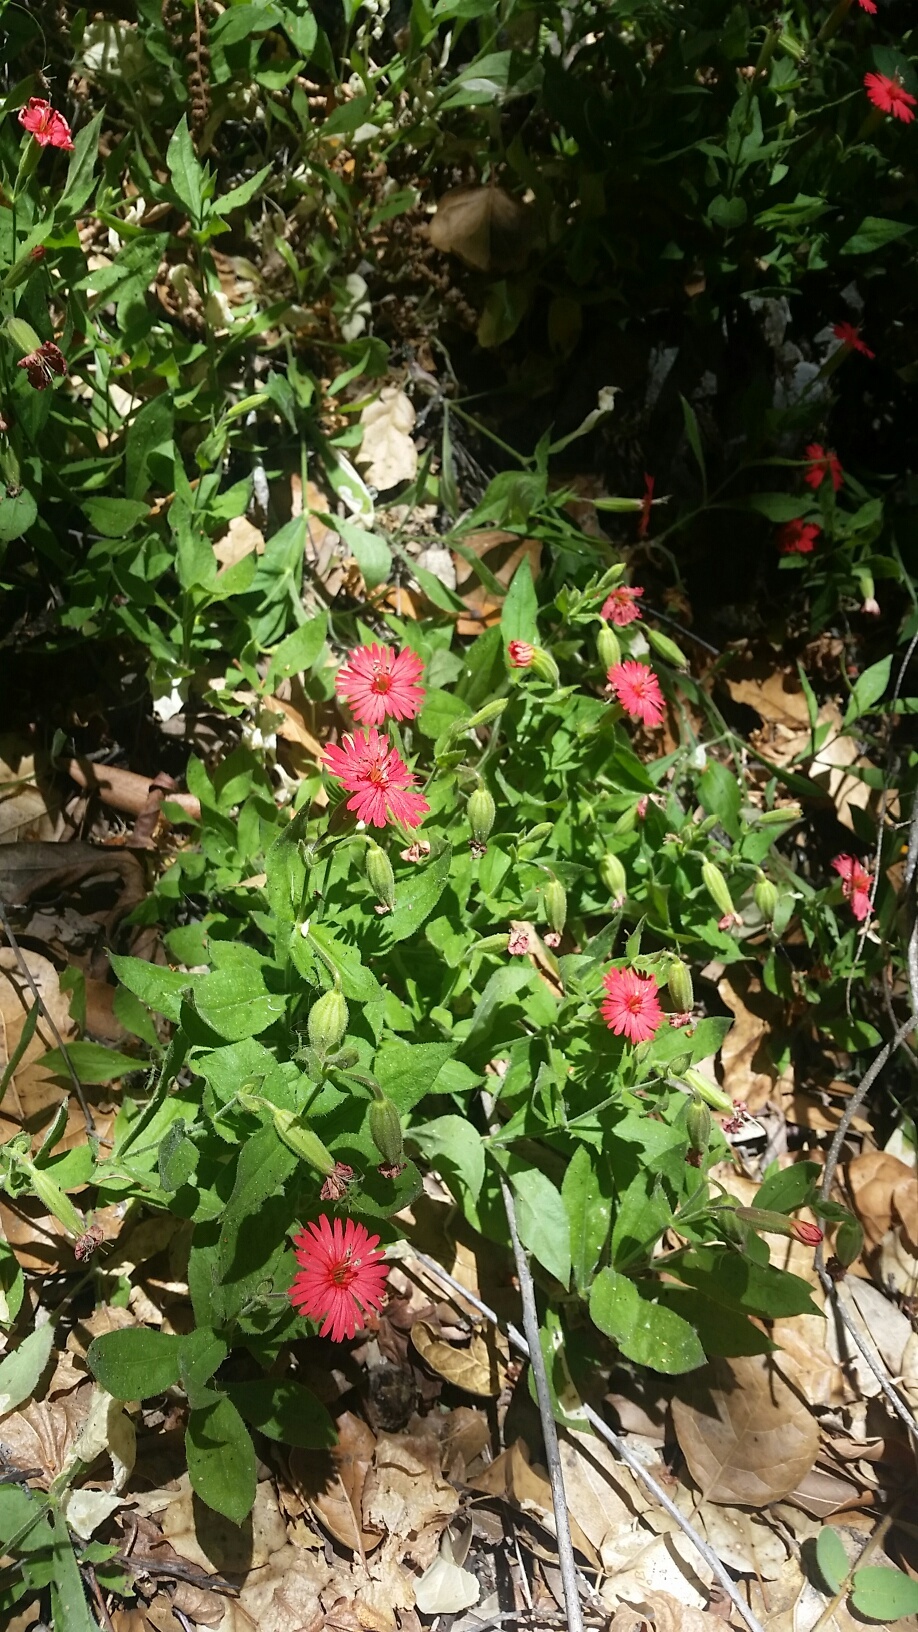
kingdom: Plantae
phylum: Tracheophyta
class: Magnoliopsida
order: Caryophyllales
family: Caryophyllaceae
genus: Silene
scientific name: Silene laciniata
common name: Indian-pink
